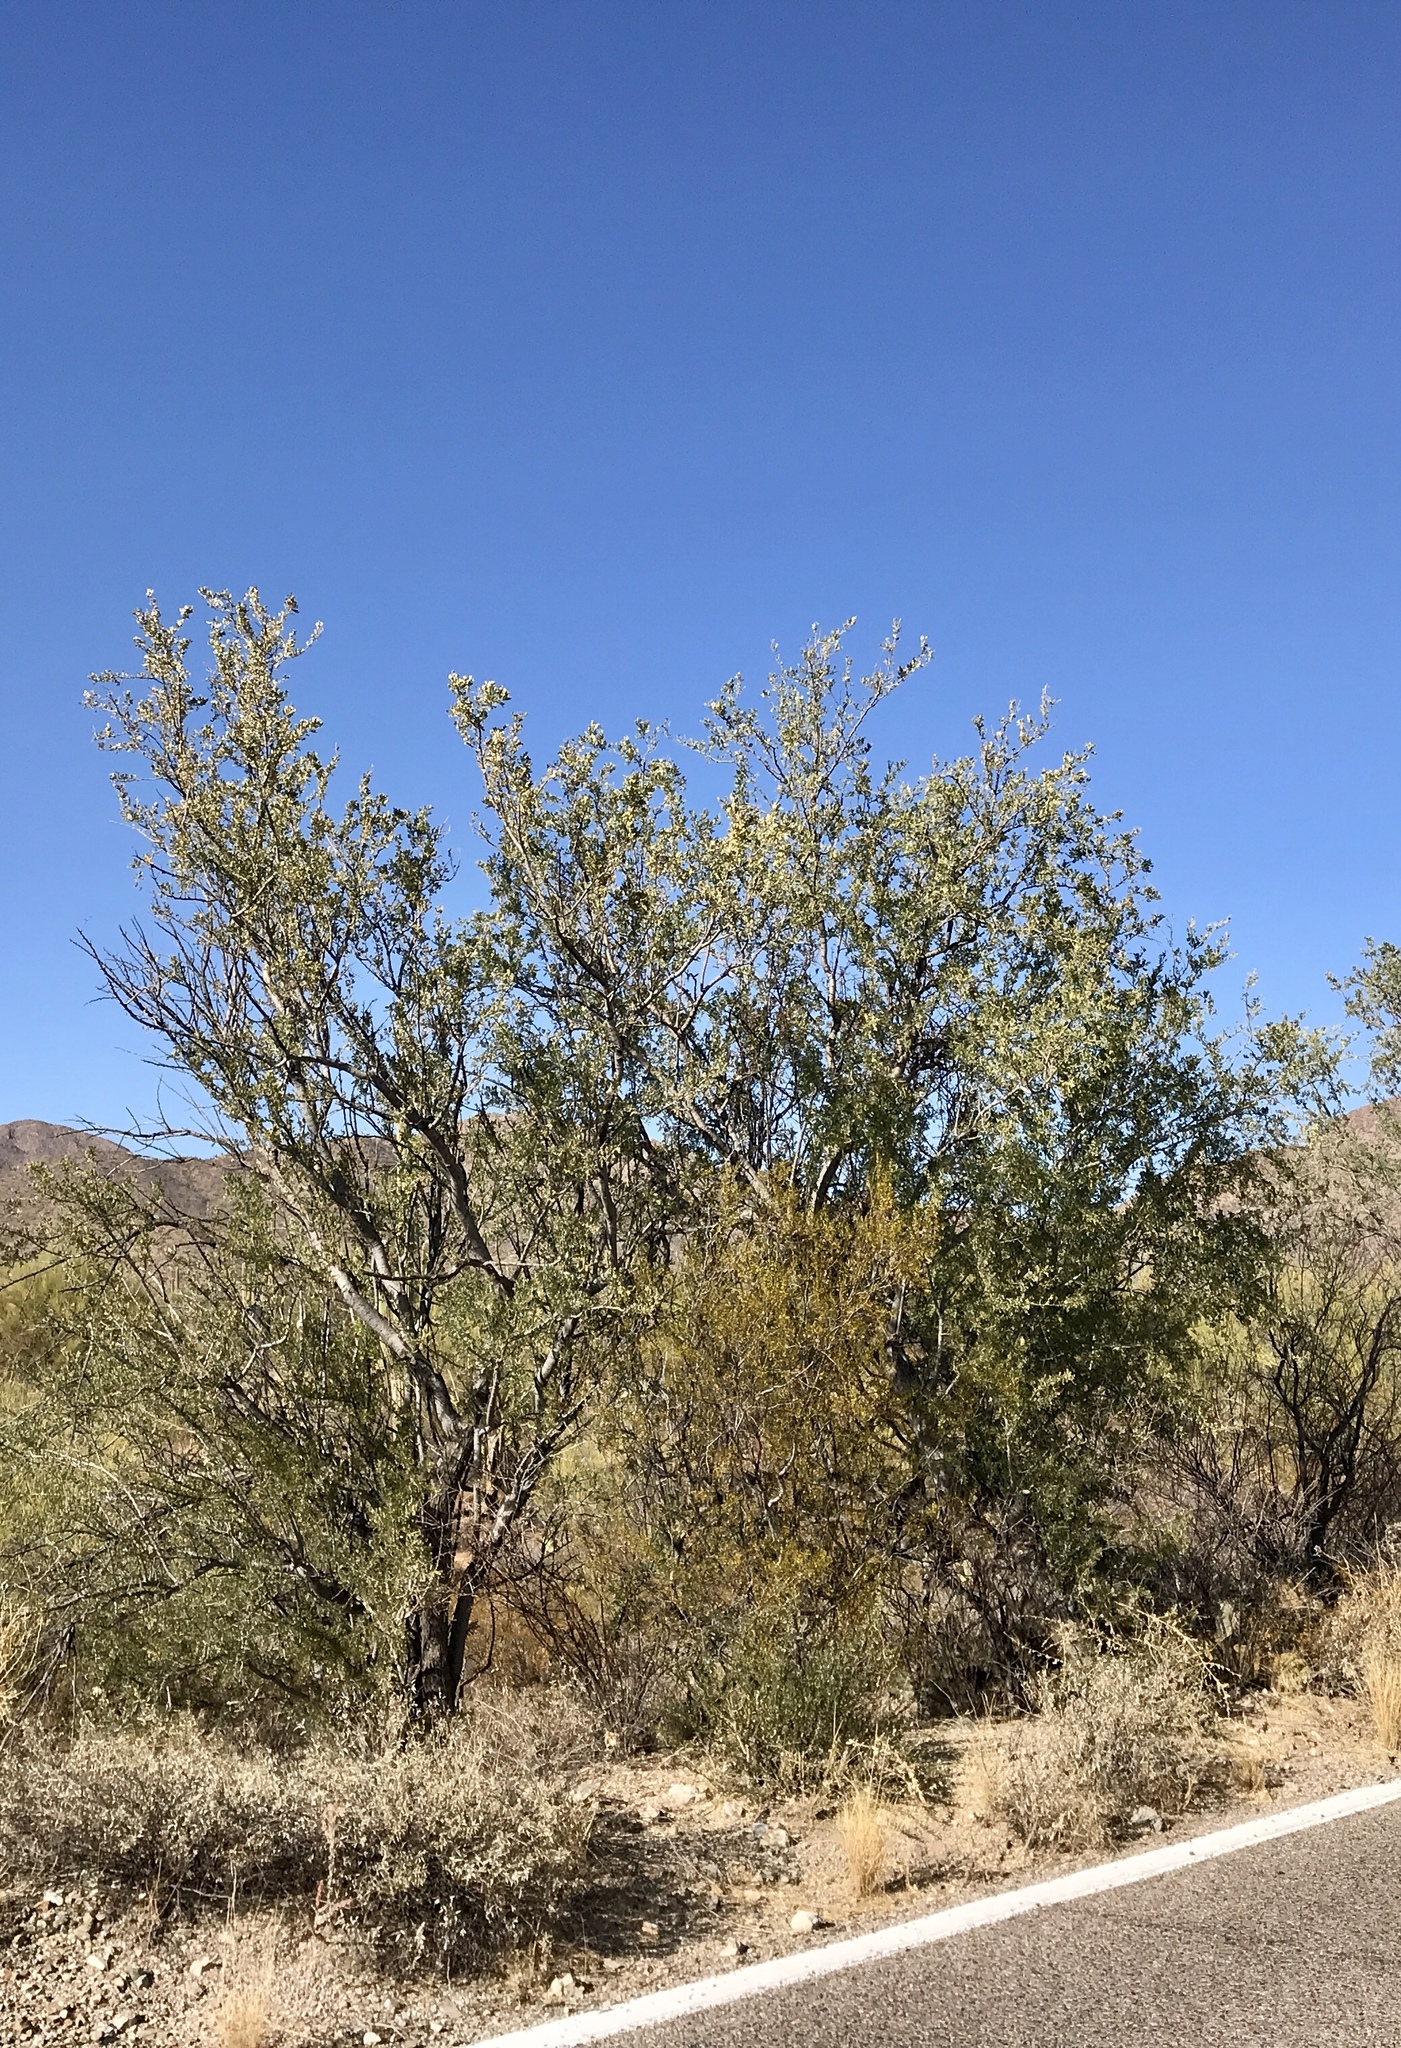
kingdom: Plantae
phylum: Tracheophyta
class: Magnoliopsida
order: Fabales
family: Fabaceae
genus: Olneya
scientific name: Olneya tesota
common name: Desert ironwood
